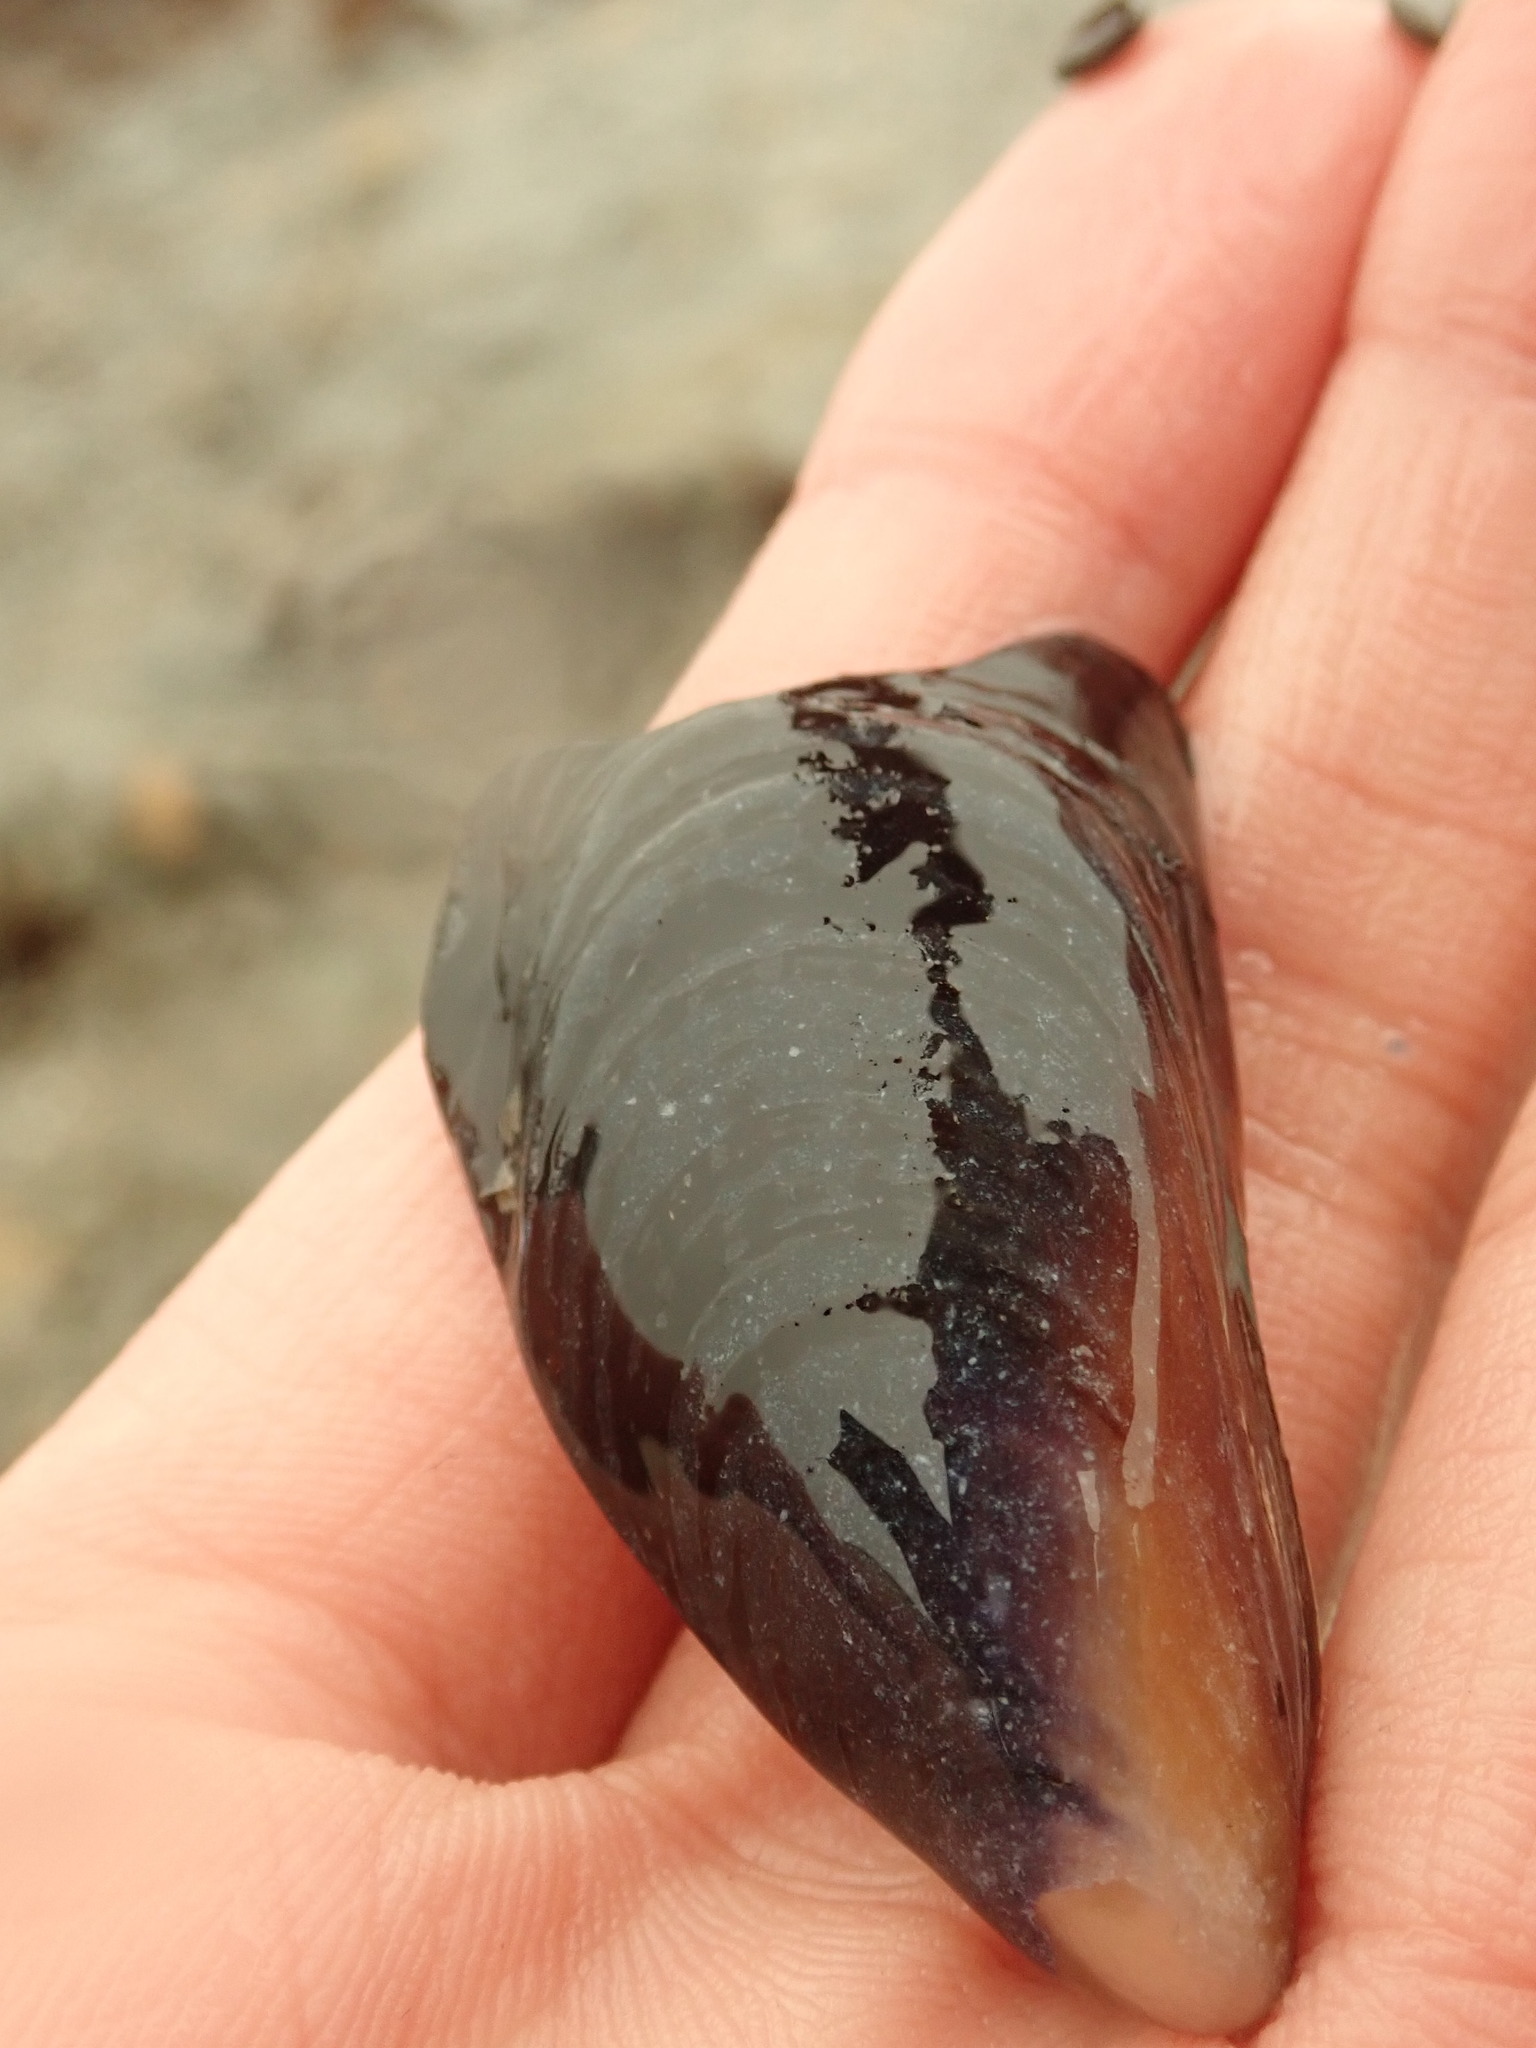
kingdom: Animalia
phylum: Mollusca
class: Bivalvia
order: Mytilida
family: Mytilidae
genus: Mytilus
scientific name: Mytilus californianus
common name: California mussel
